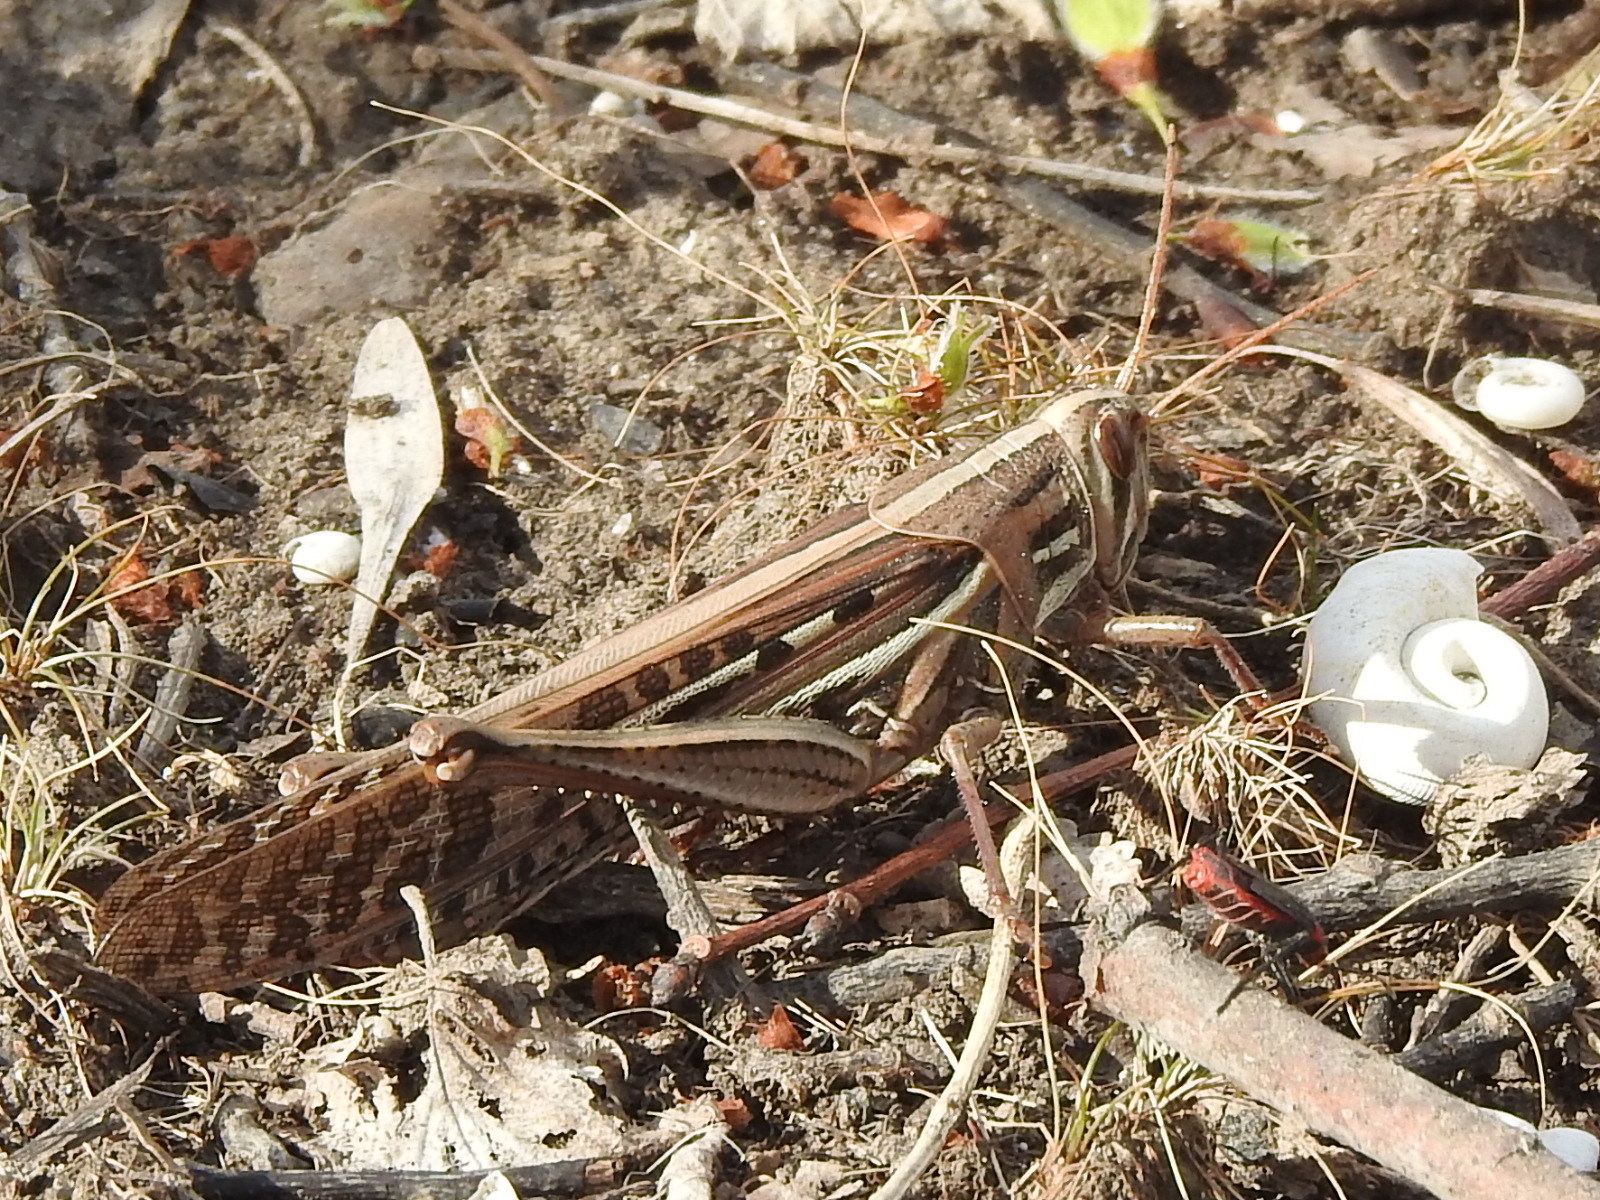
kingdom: Animalia
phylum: Arthropoda
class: Insecta
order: Orthoptera
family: Acrididae
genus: Schistocerca
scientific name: Schistocerca americana
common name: American bird locust
